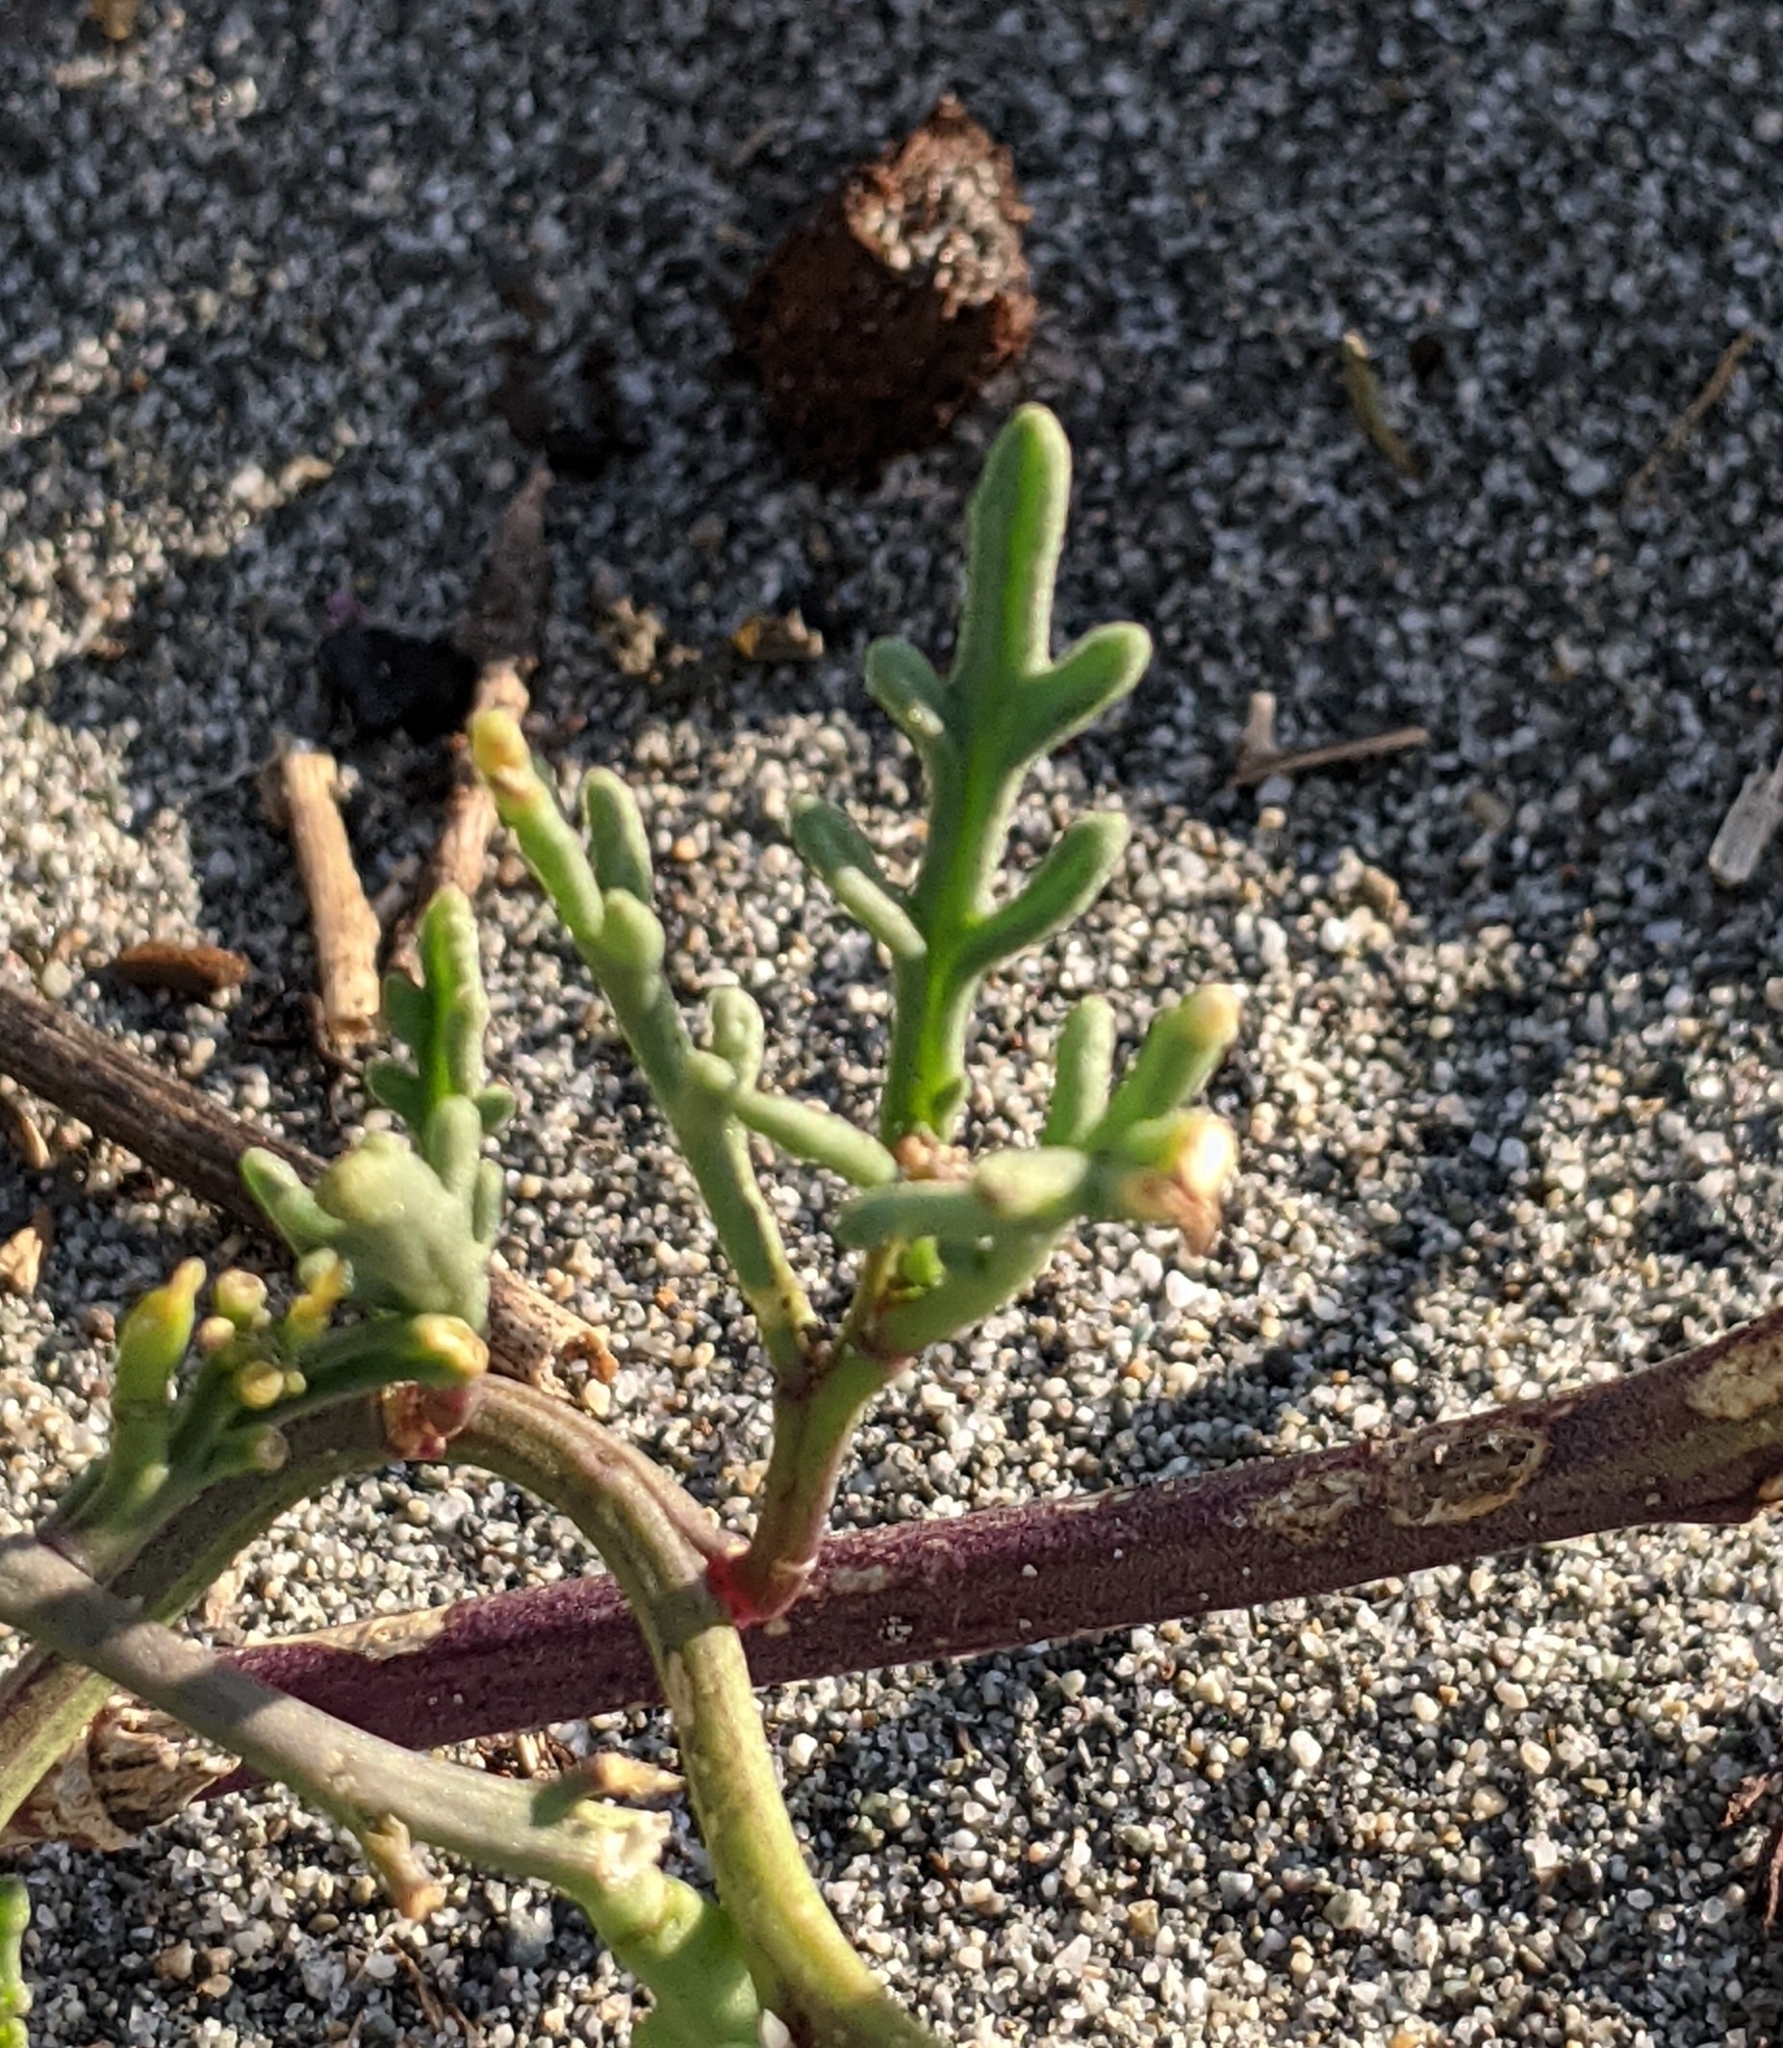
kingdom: Plantae
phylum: Tracheophyta
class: Magnoliopsida
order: Brassicales
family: Brassicaceae
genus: Cakile
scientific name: Cakile maritima
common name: Sea rocket
